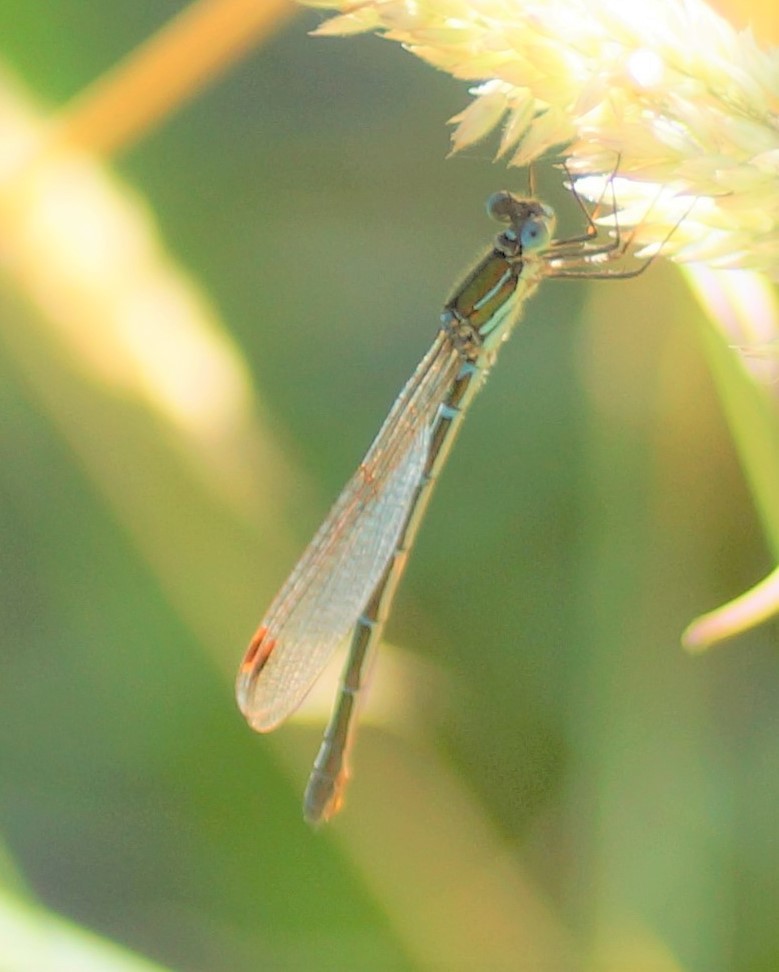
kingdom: Animalia
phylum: Arthropoda
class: Insecta
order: Odonata
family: Lestidae
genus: Austrolestes
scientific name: Austrolestes cingulatus
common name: Metallic ringtail
